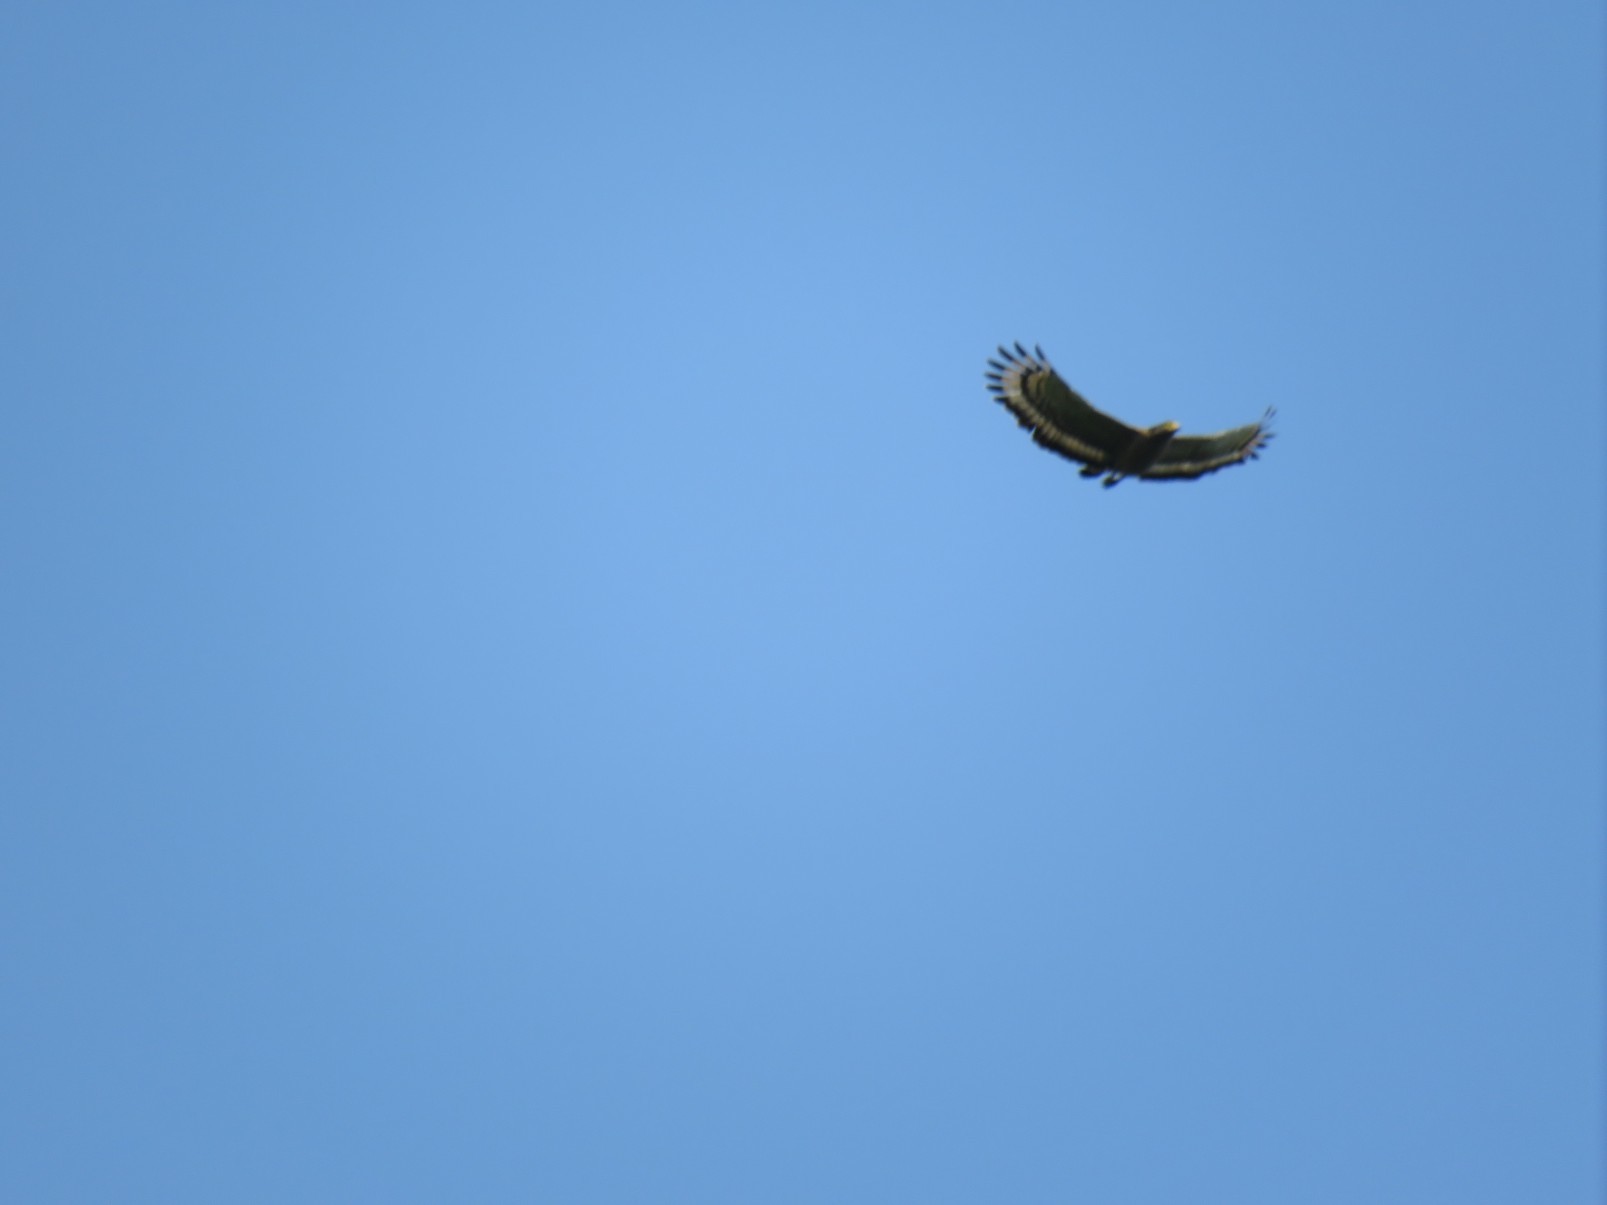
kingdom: Animalia
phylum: Chordata
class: Aves
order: Accipitriformes
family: Accipitridae
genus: Spilornis
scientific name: Spilornis cheela
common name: Crested serpent eagle
